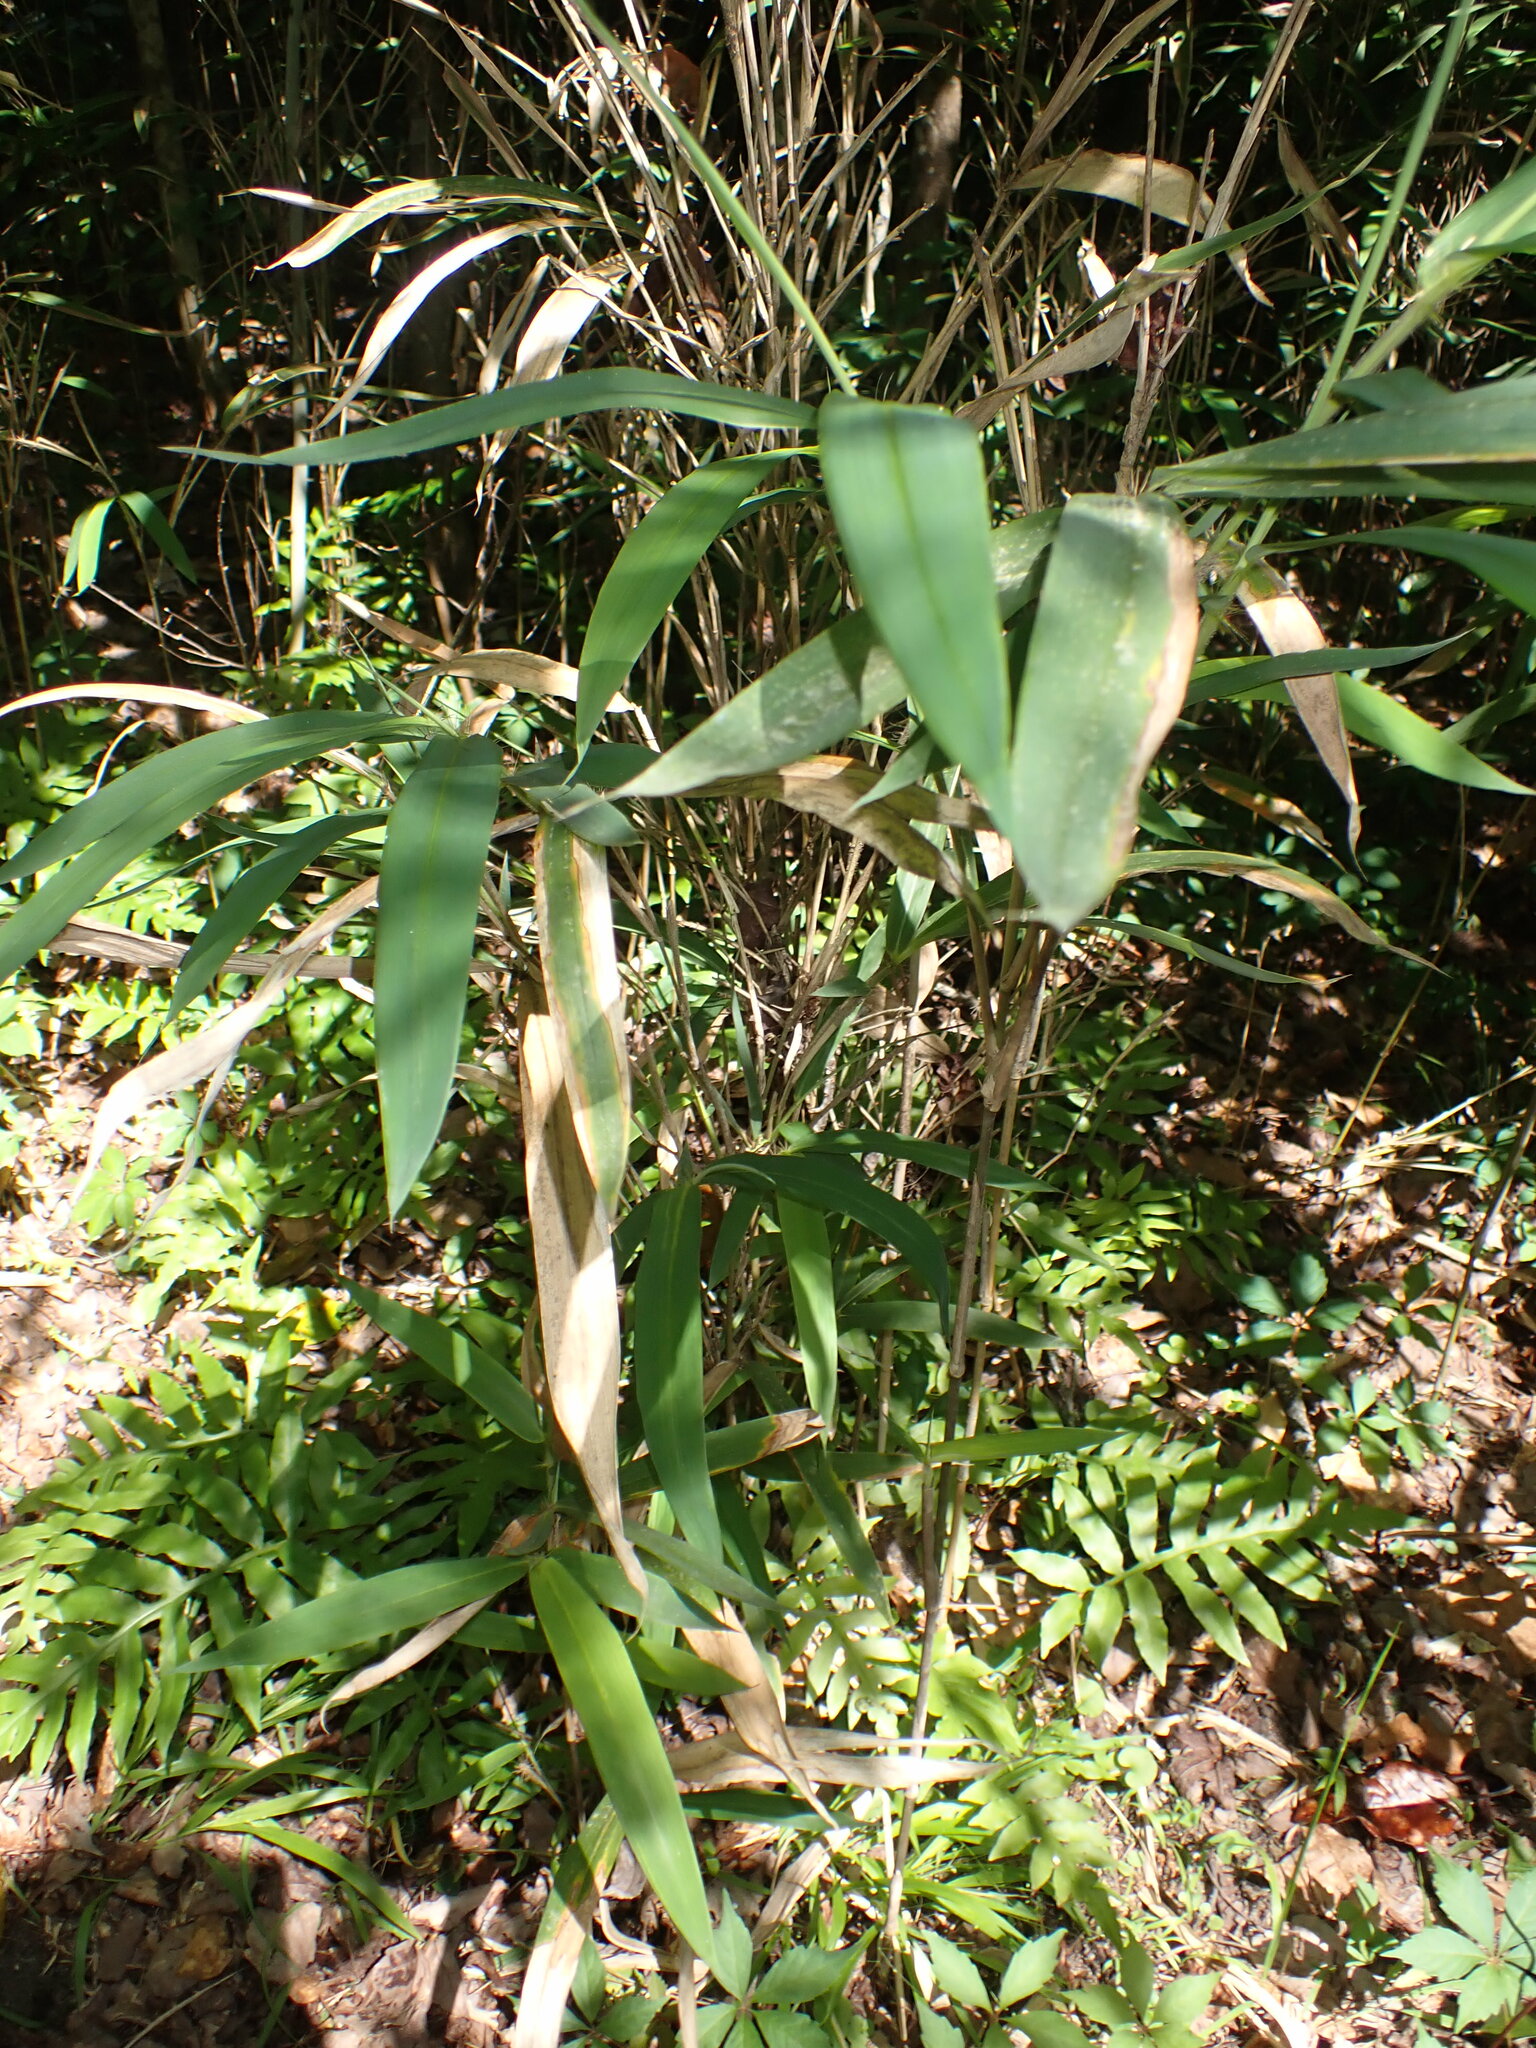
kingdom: Plantae
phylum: Tracheophyta
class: Liliopsida
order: Poales
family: Poaceae
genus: Arundinaria
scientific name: Arundinaria tecta
